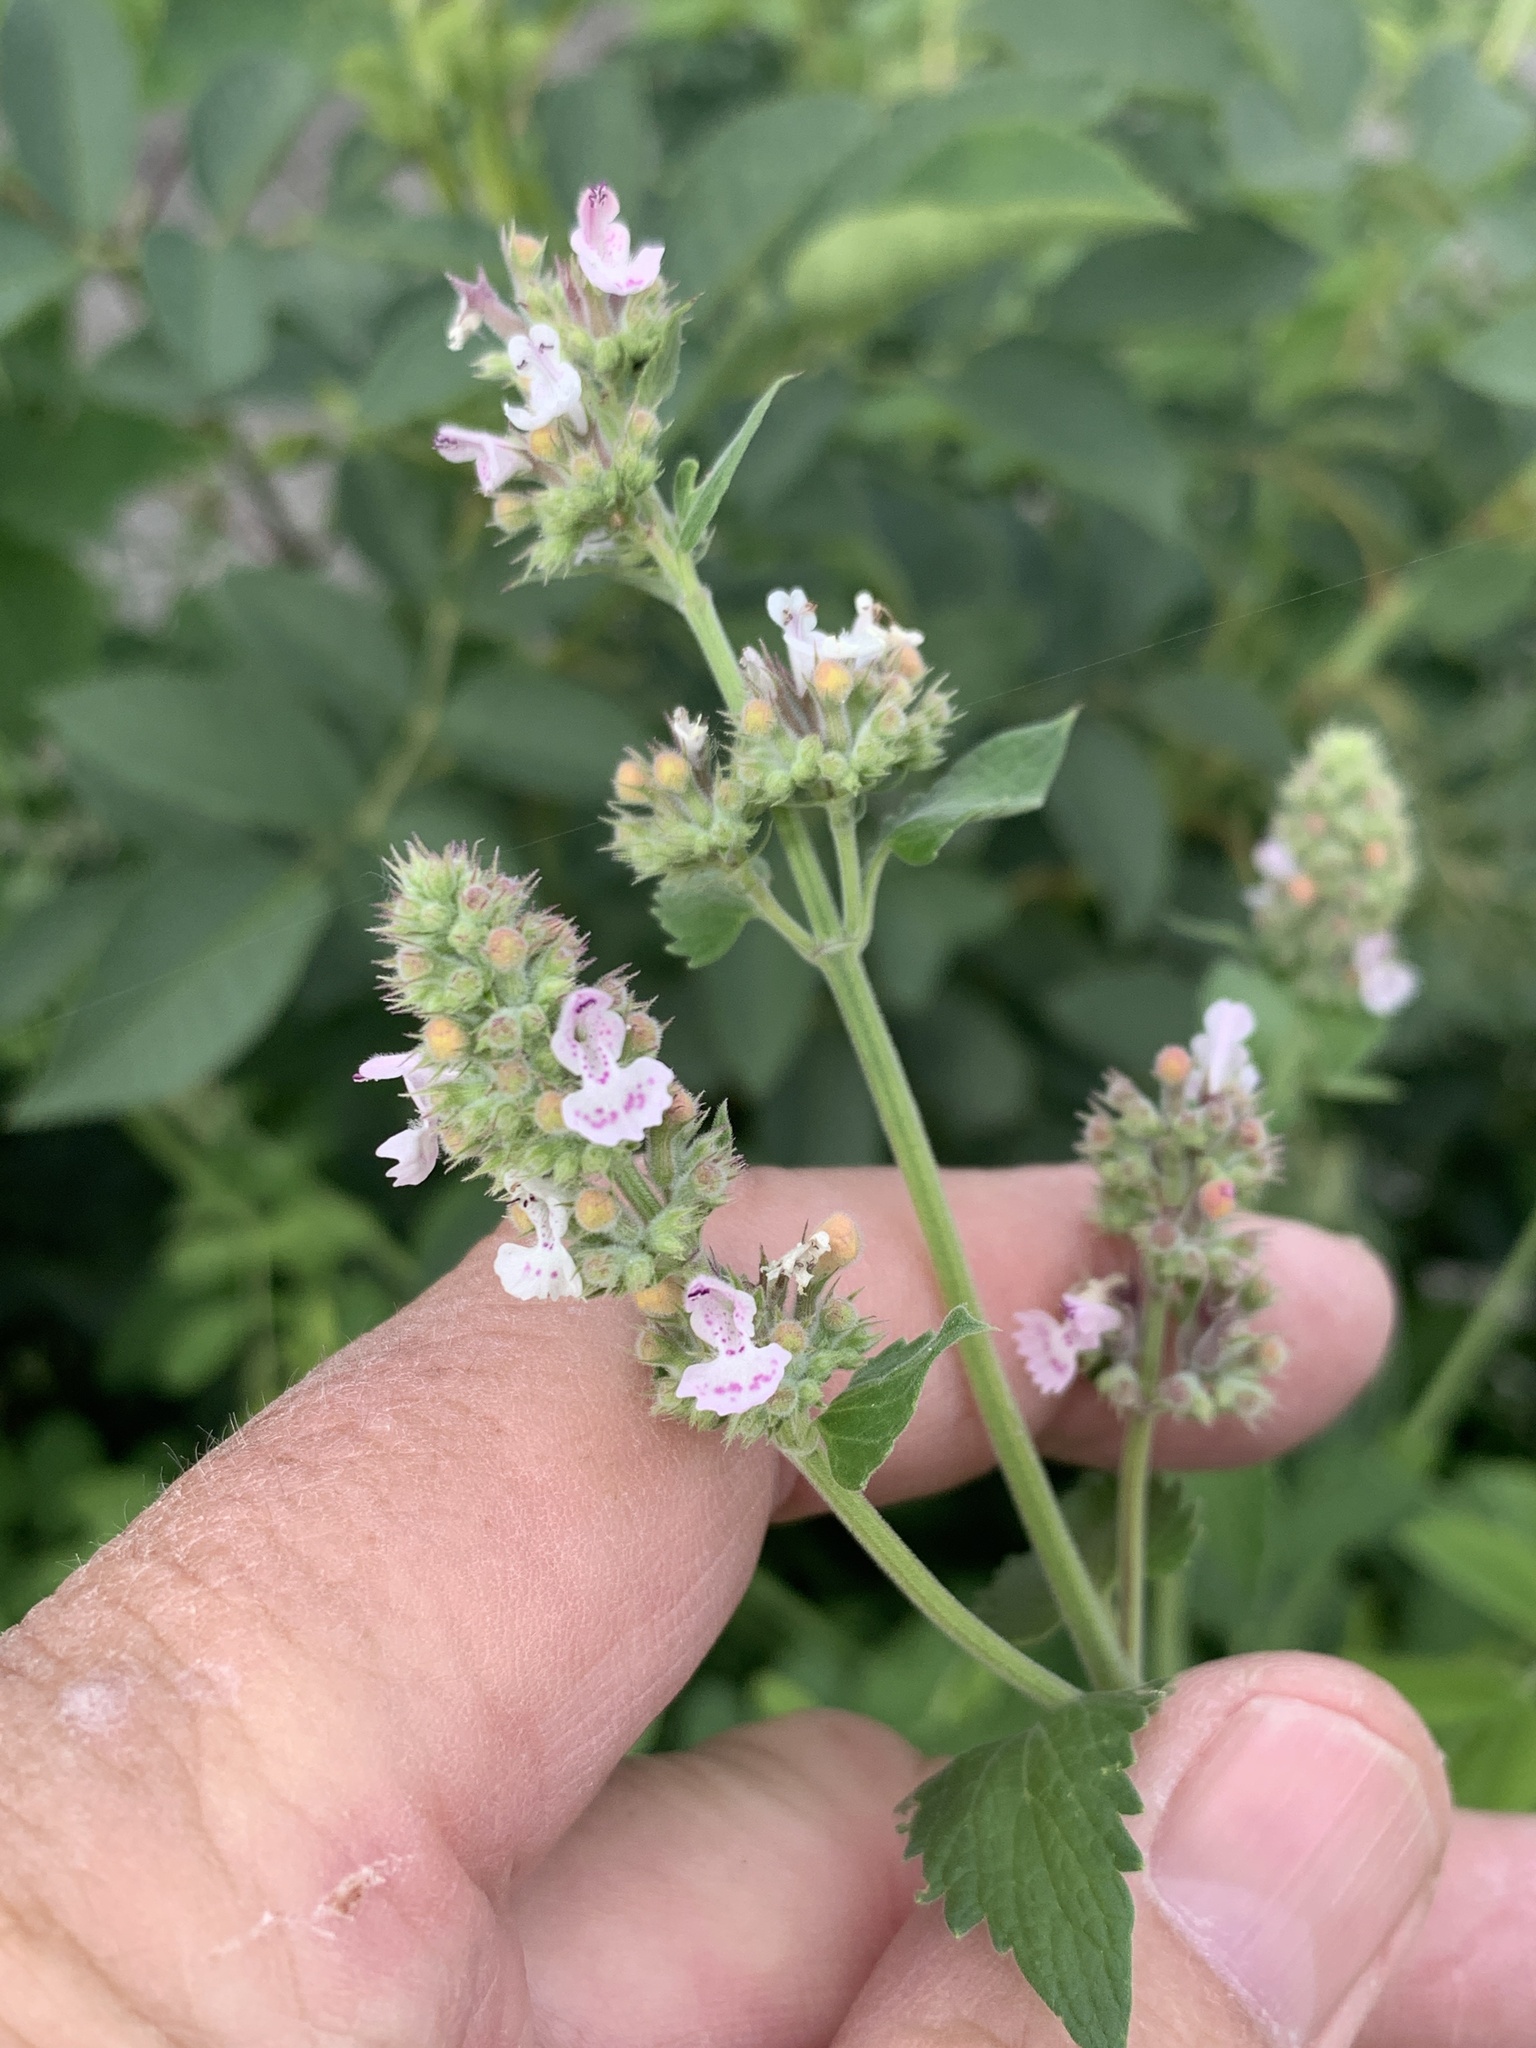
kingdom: Plantae
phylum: Tracheophyta
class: Magnoliopsida
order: Lamiales
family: Lamiaceae
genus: Nepeta
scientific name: Nepeta cataria
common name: Catnip
